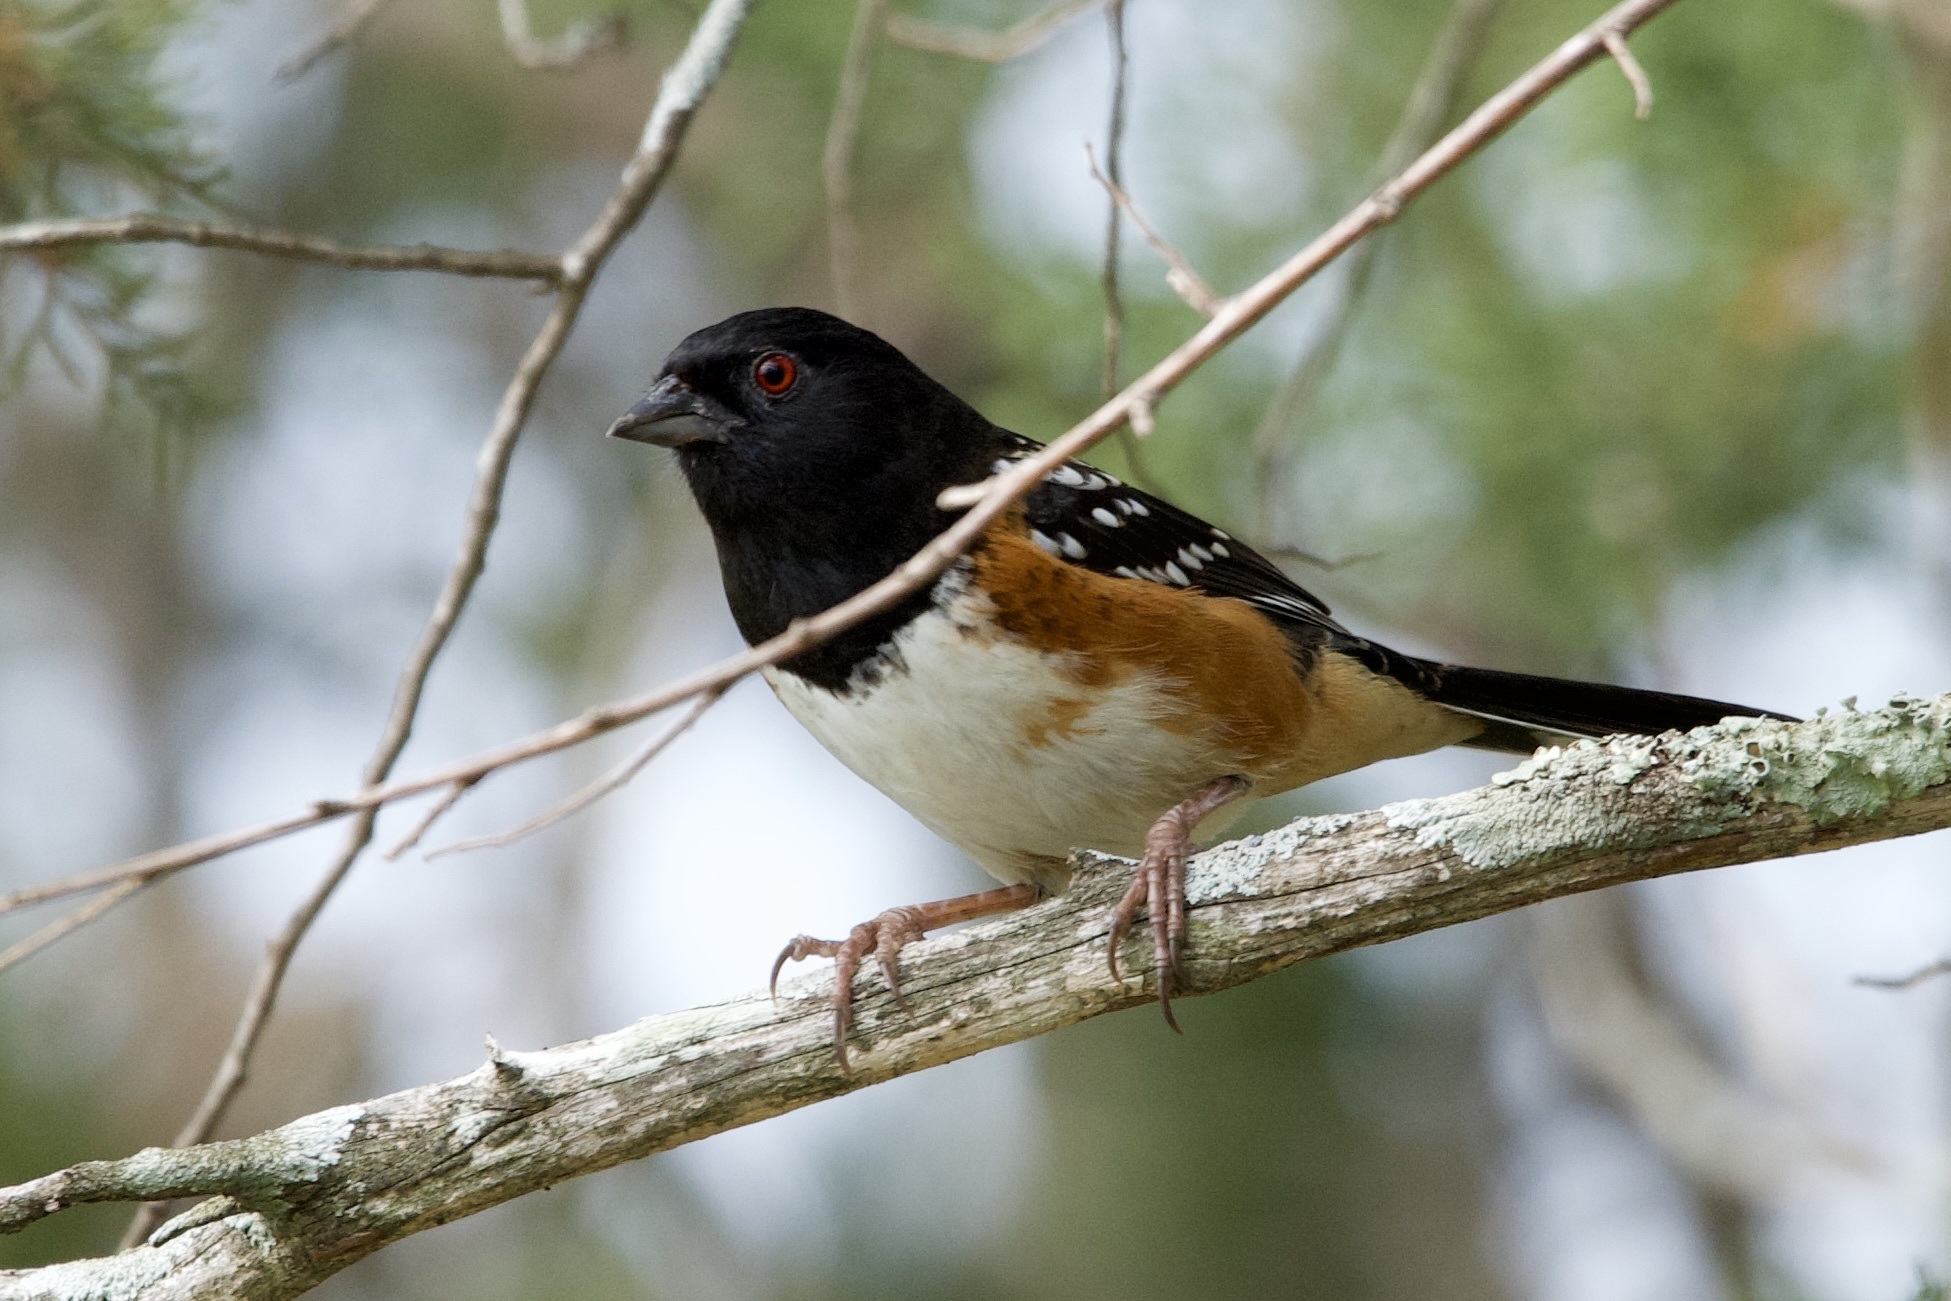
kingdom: Animalia
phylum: Chordata
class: Aves
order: Passeriformes
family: Passerellidae
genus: Pipilo
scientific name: Pipilo maculatus
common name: Spotted towhee
